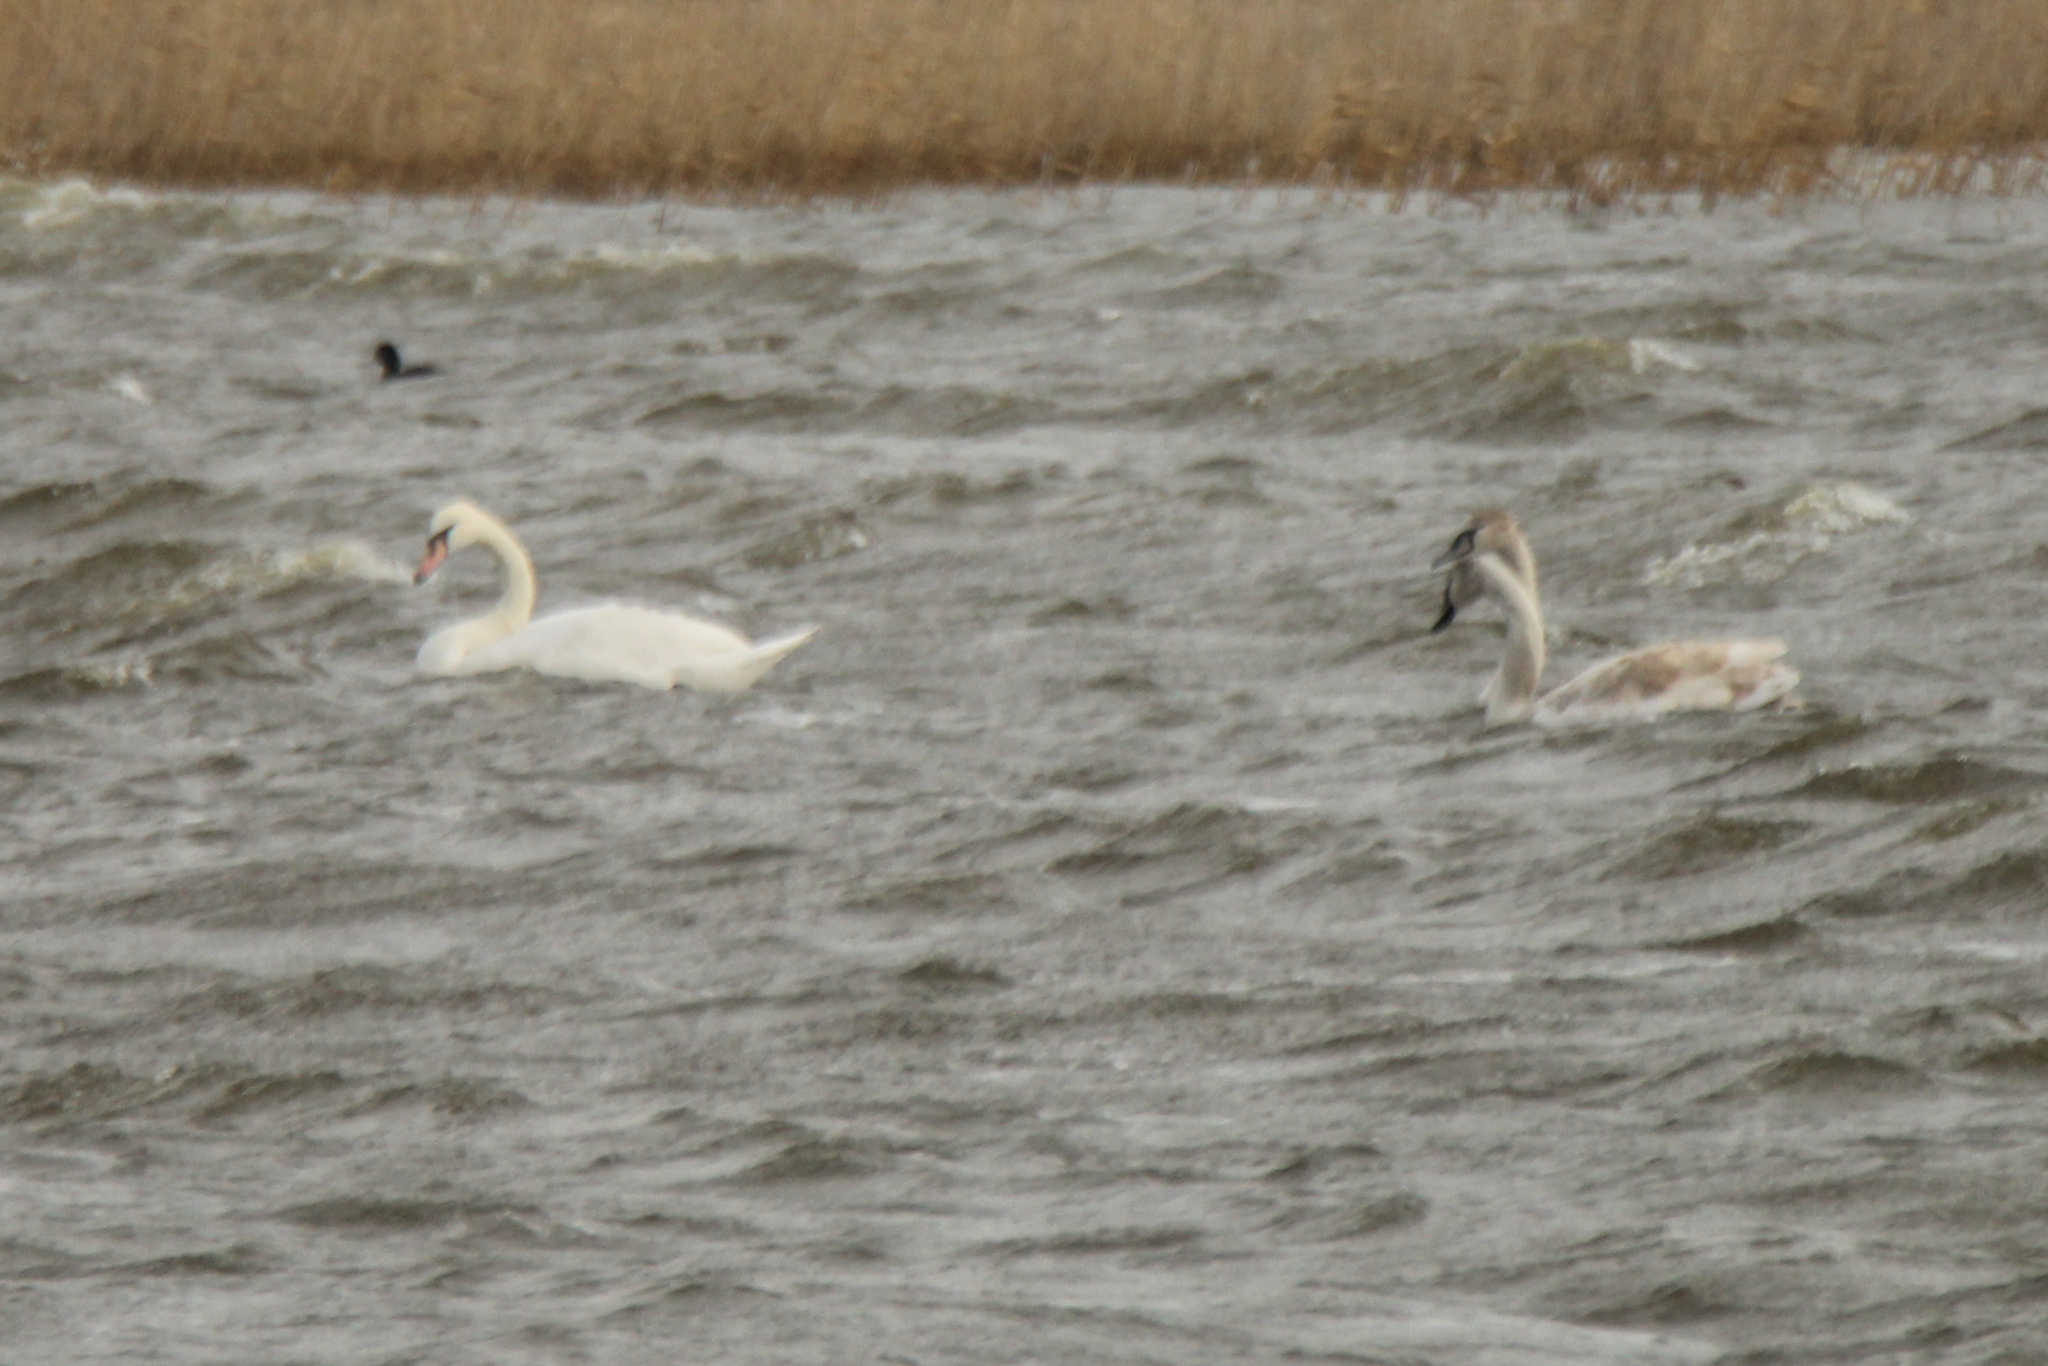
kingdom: Animalia
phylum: Chordata
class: Aves
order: Anseriformes
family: Anatidae
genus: Cygnus
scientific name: Cygnus olor
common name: Mute swan
